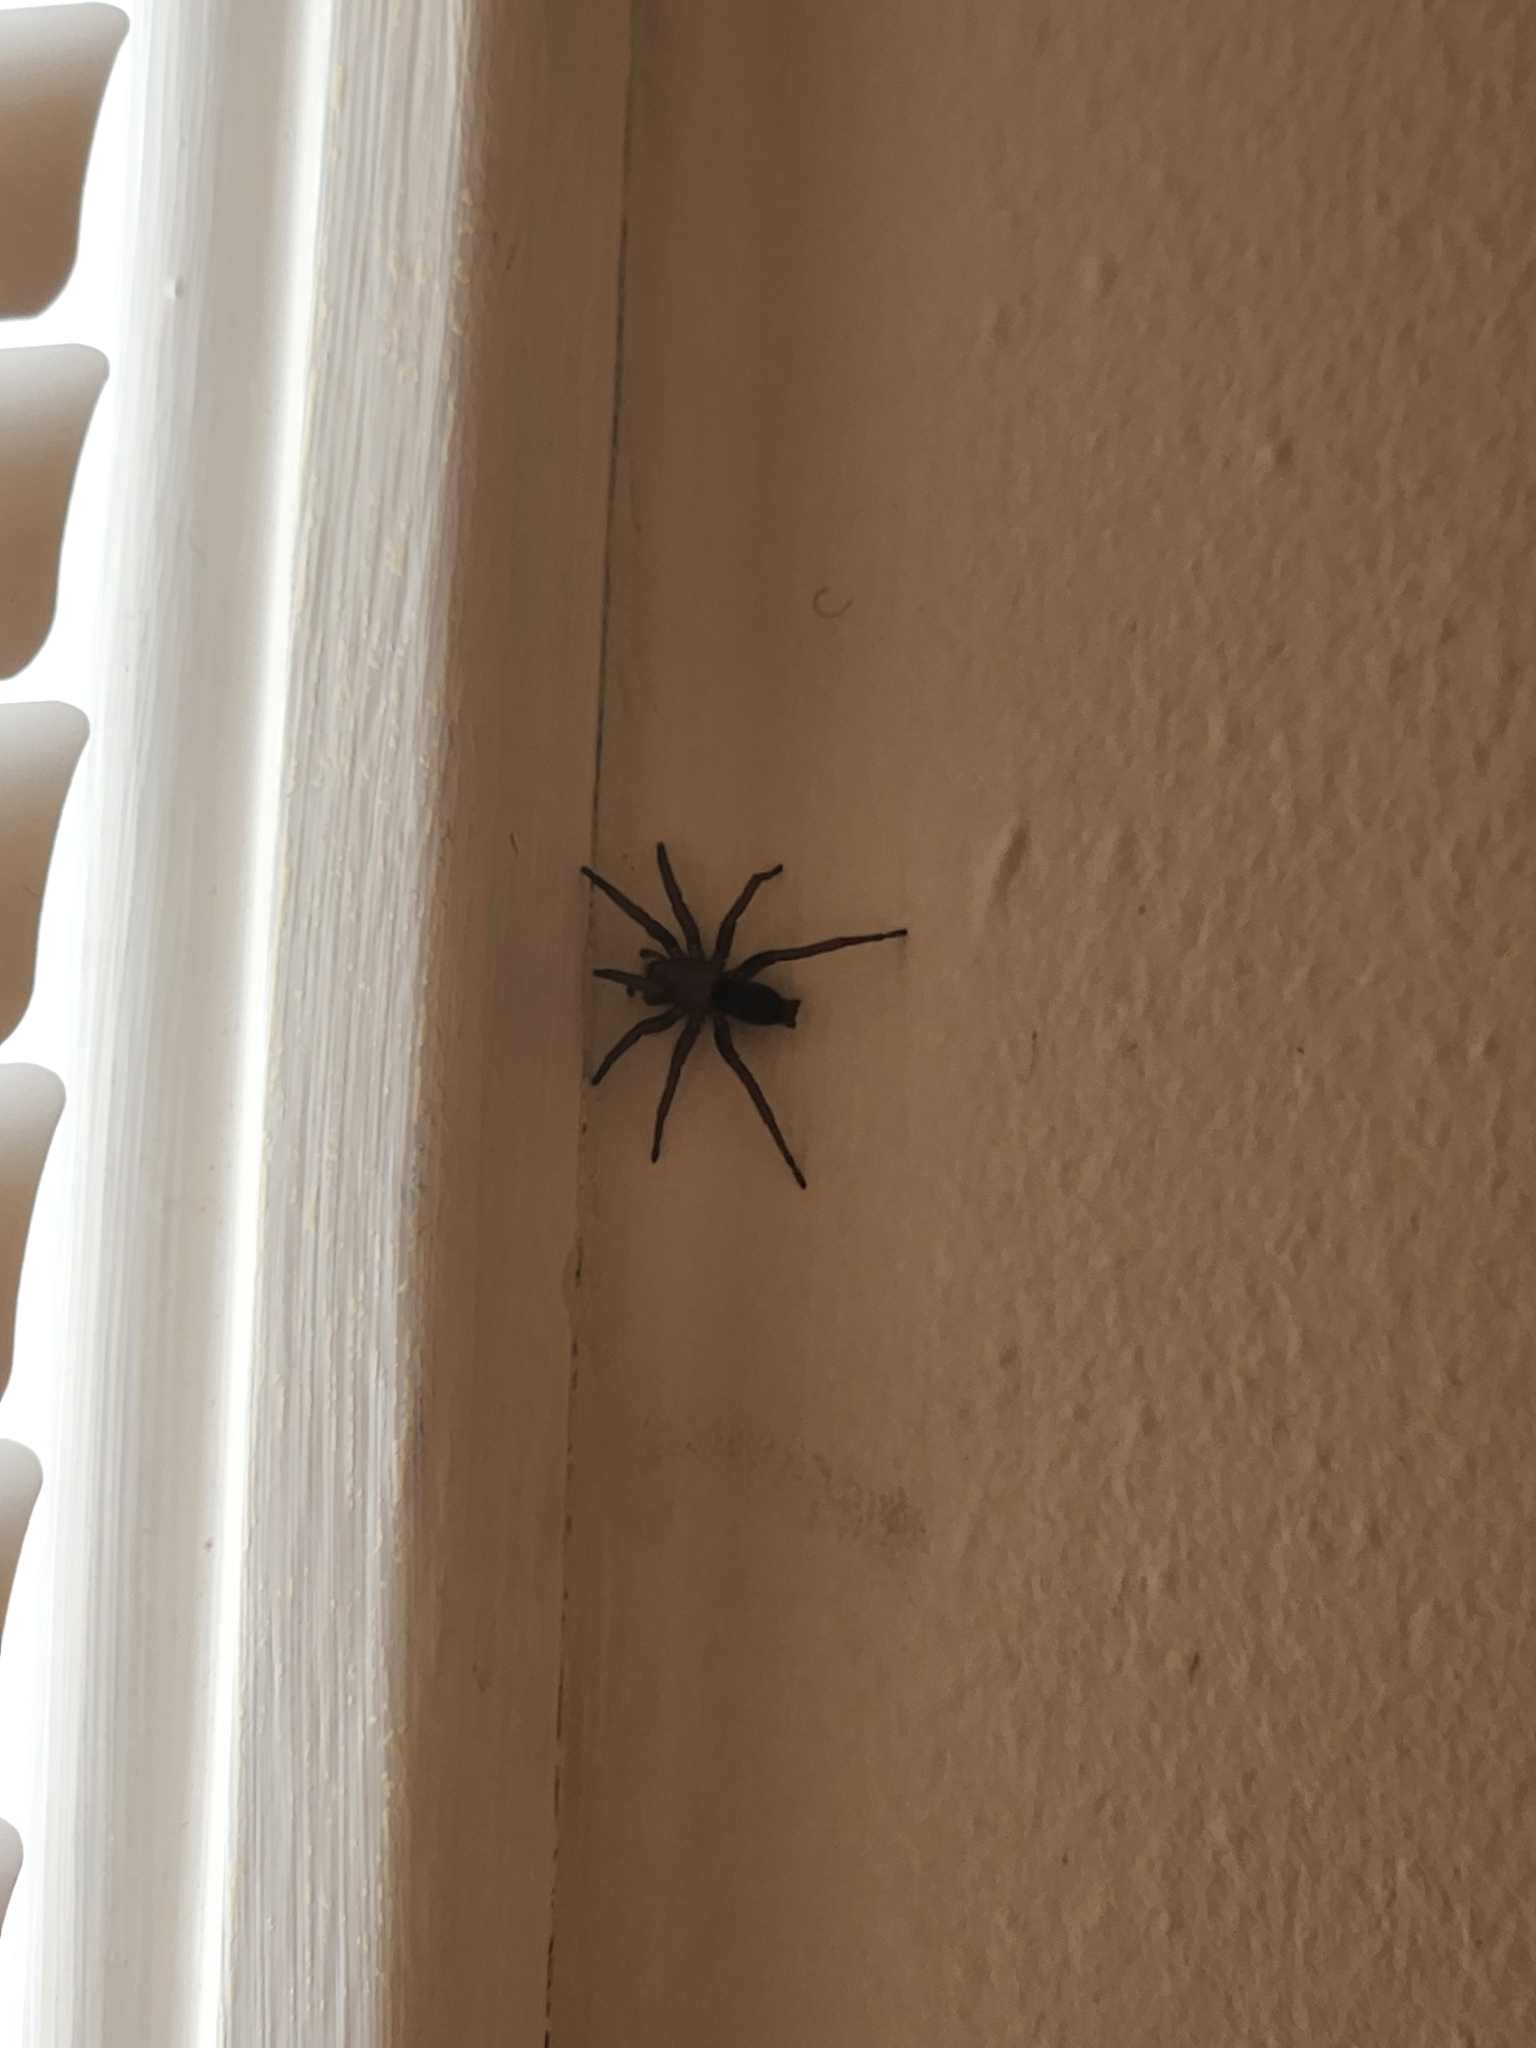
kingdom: Animalia
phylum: Arthropoda
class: Arachnida
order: Araneae
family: Gnaphosidae
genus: Scotophaeus
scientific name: Scotophaeus blackwalli
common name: Mouse spider
